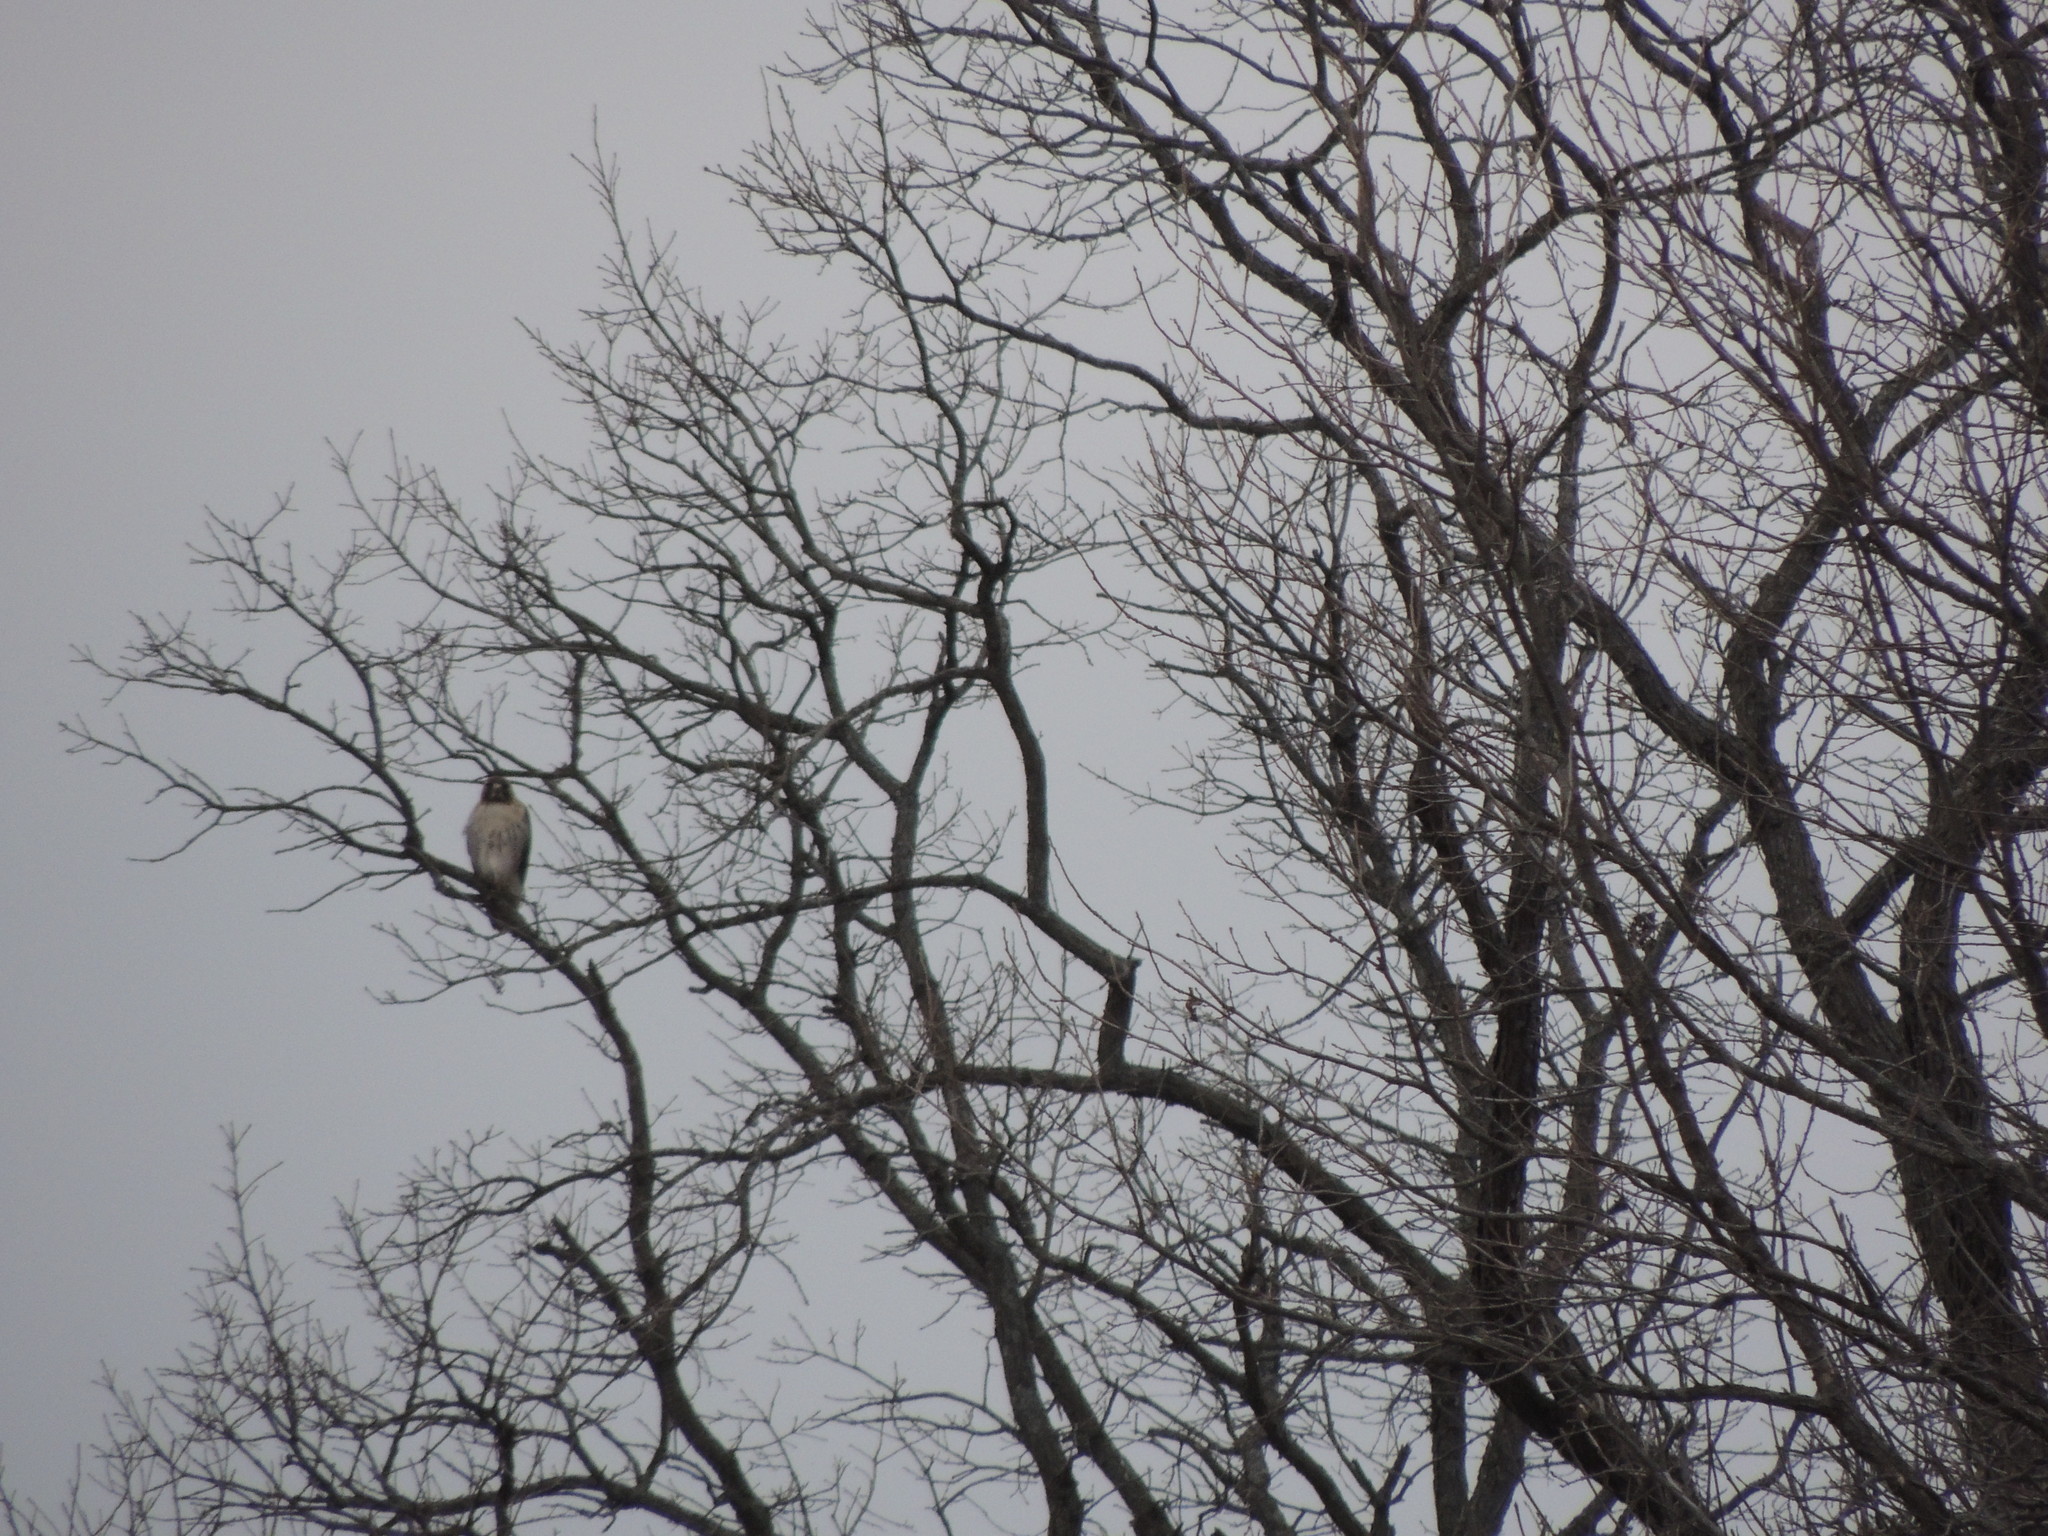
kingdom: Animalia
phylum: Chordata
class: Aves
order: Accipitriformes
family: Accipitridae
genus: Buteo
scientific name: Buteo jamaicensis
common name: Red-tailed hawk
